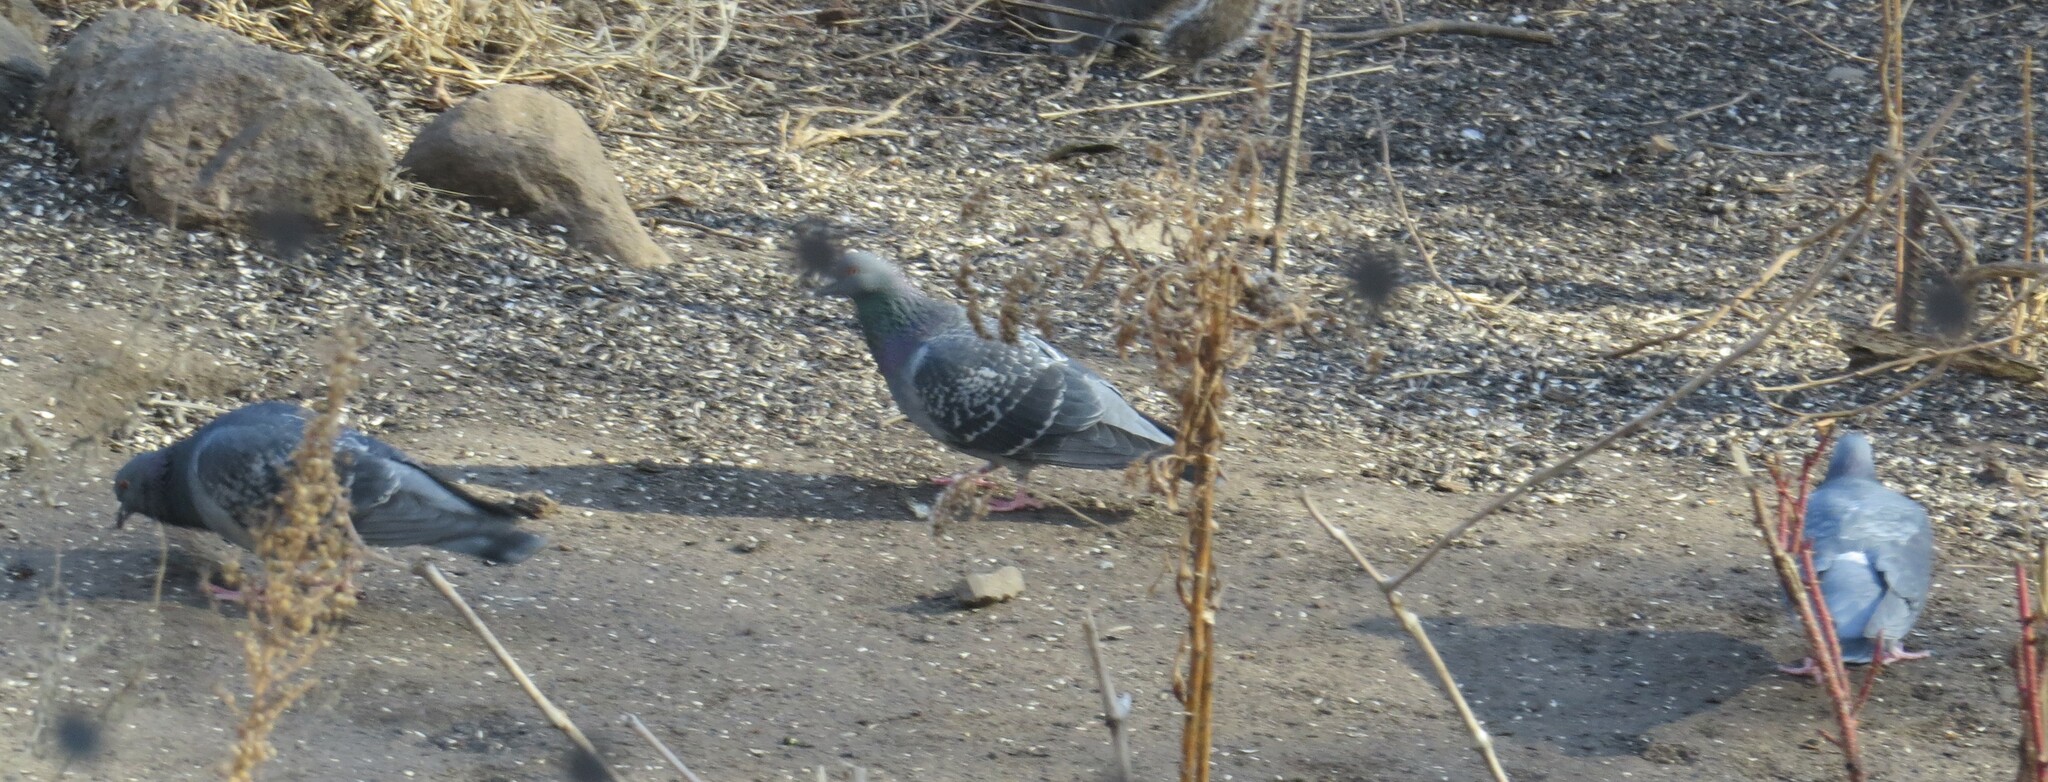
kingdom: Animalia
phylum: Chordata
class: Aves
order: Columbiformes
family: Columbidae
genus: Columba
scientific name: Columba livia
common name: Rock pigeon
